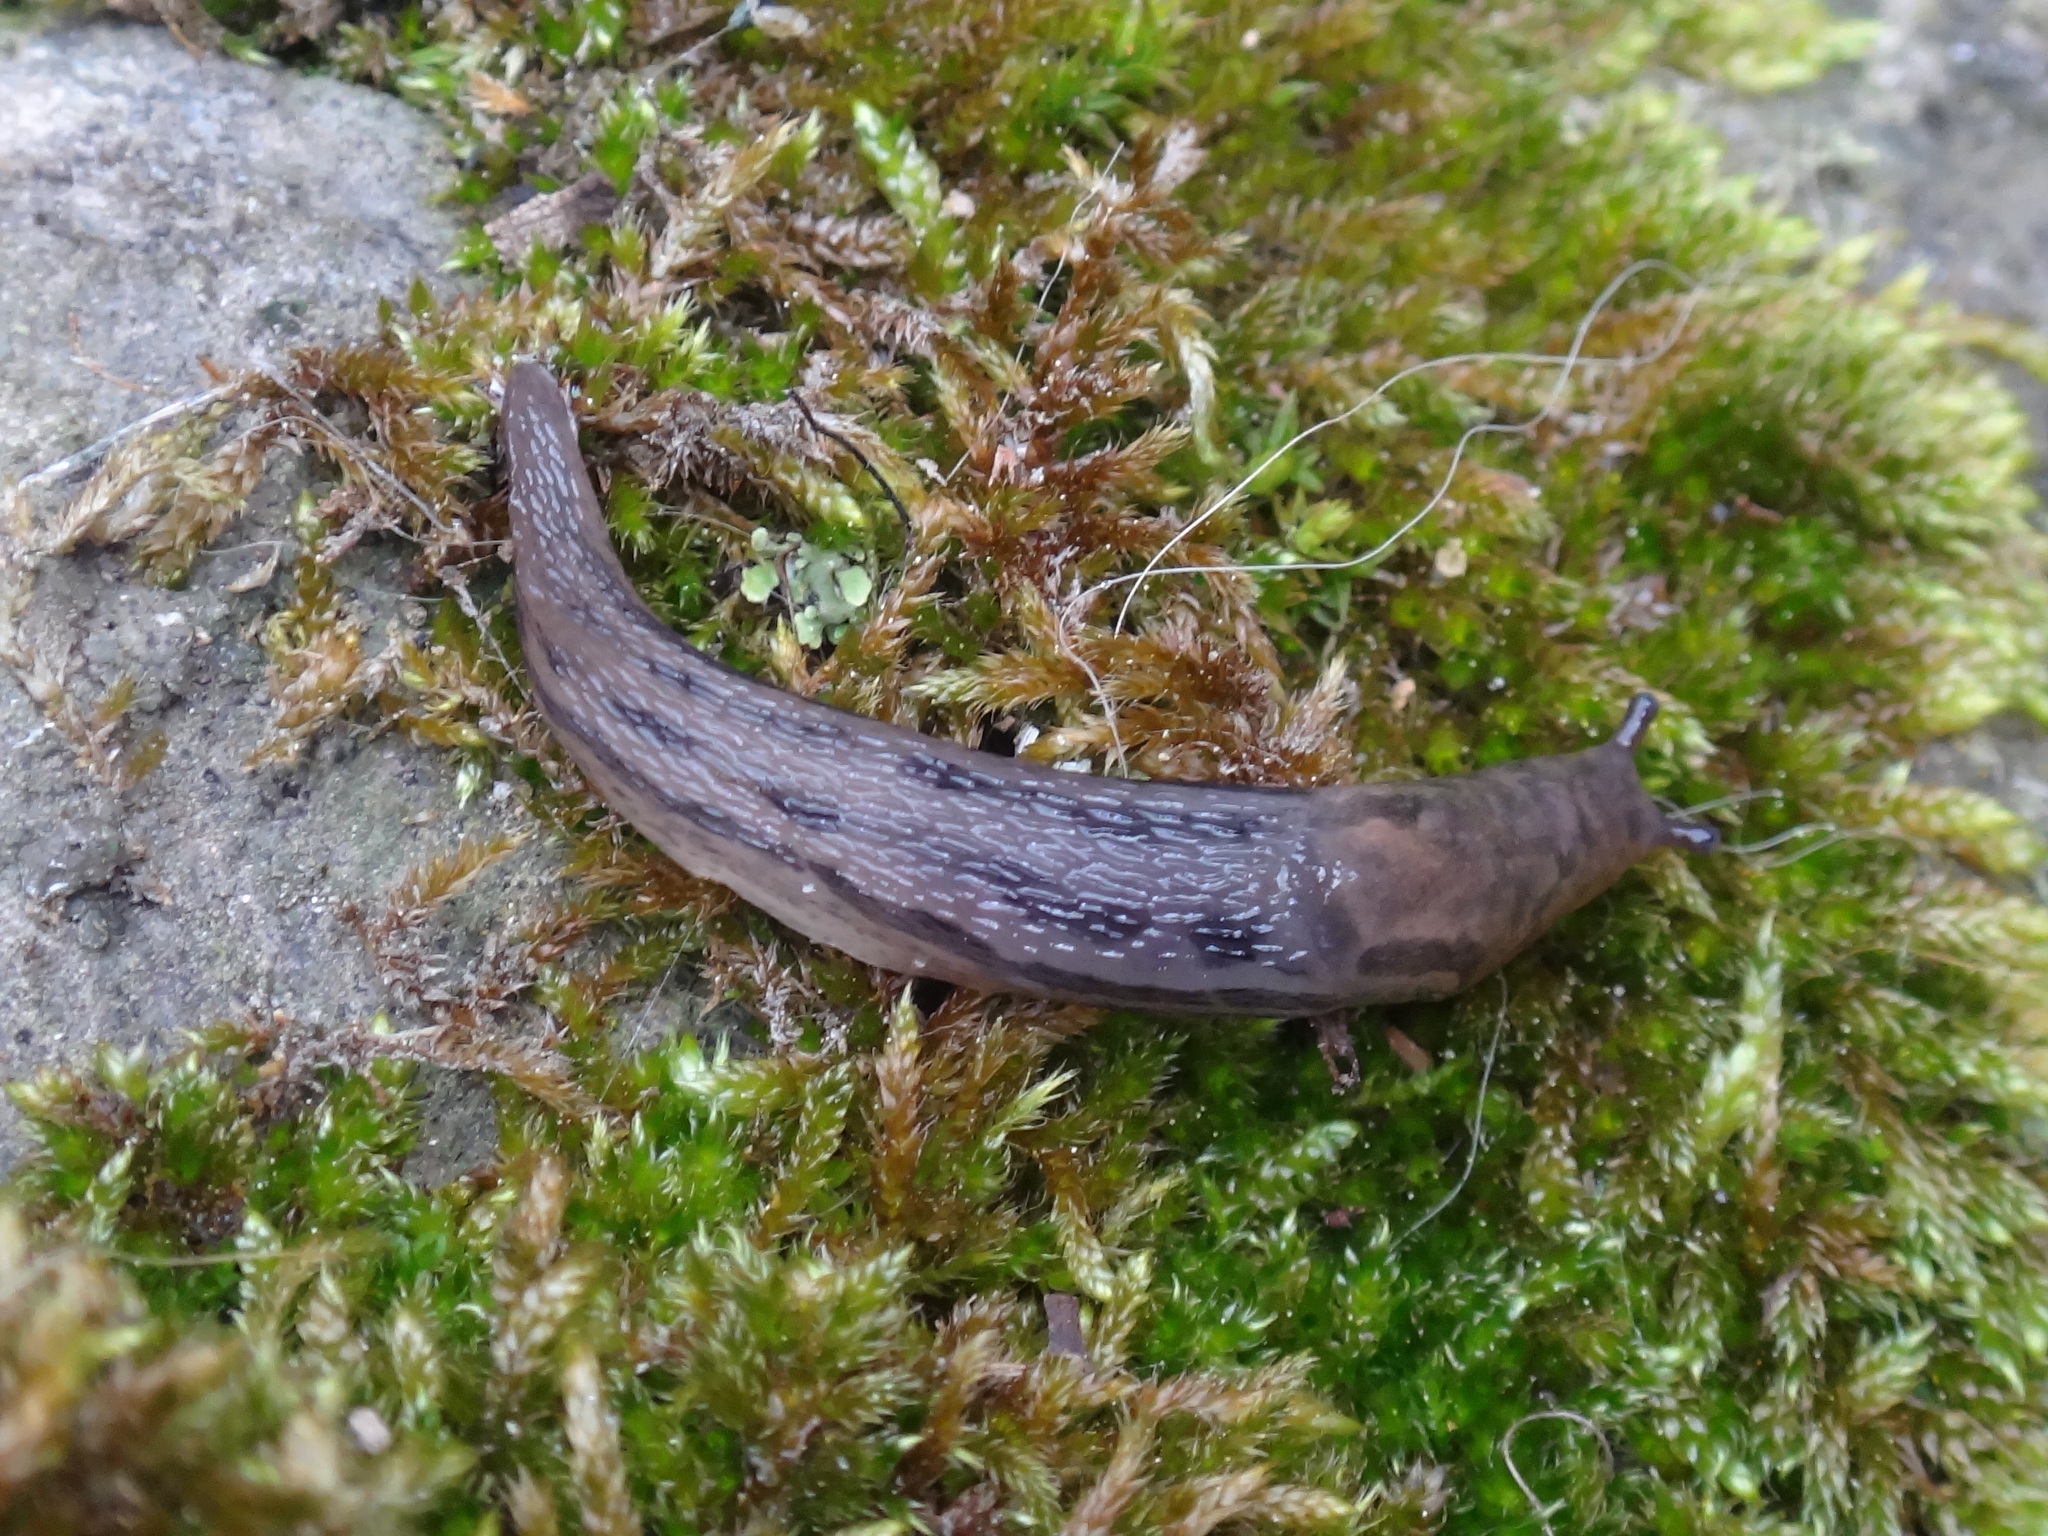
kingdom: Animalia
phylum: Mollusca
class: Gastropoda
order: Stylommatophora
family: Limacidae
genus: Limax
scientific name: Limax maximus
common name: Great grey slug
